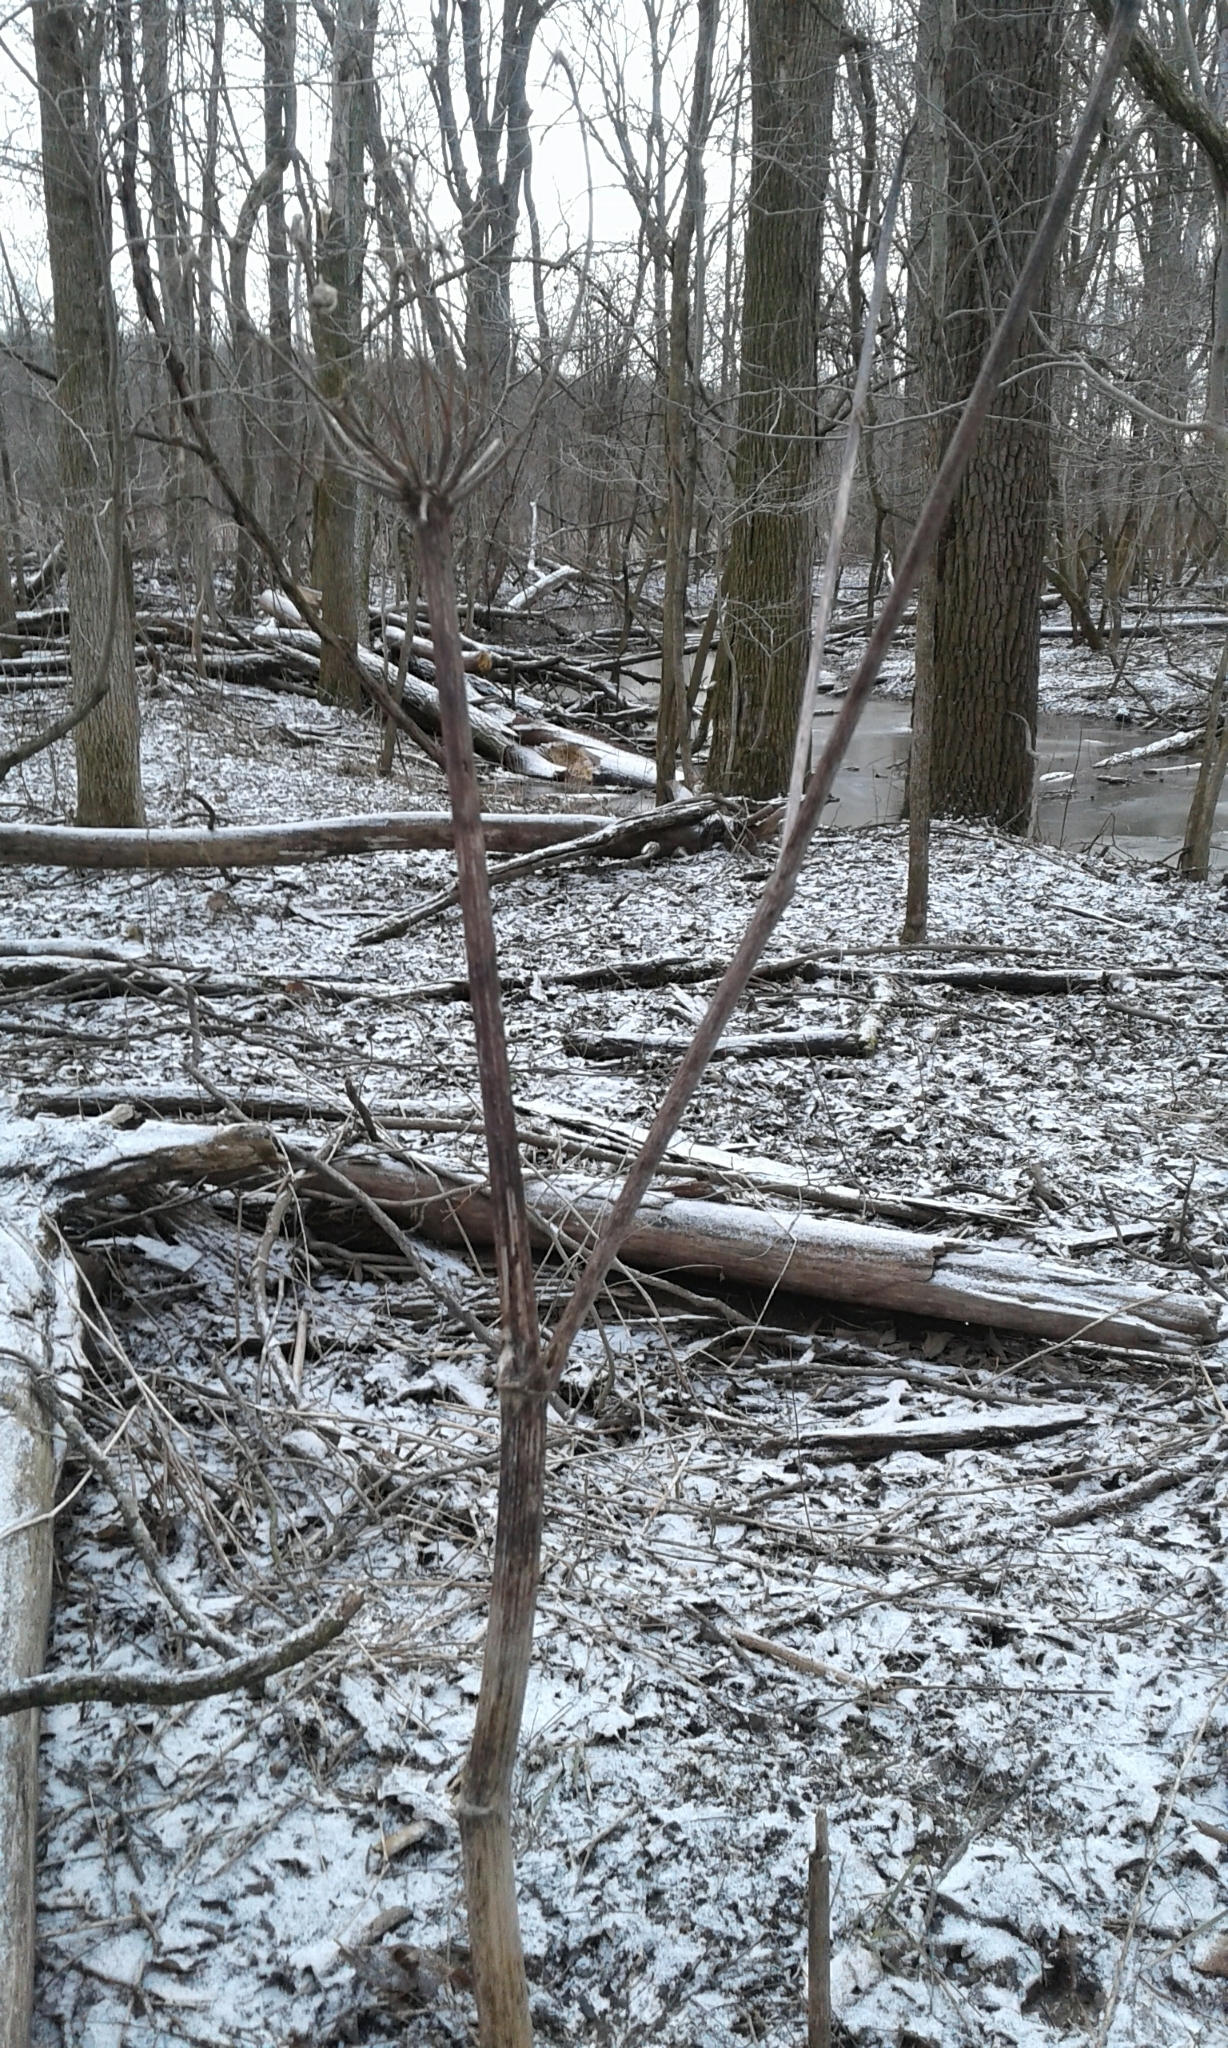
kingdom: Plantae
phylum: Tracheophyta
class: Magnoliopsida
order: Apiales
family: Apiaceae
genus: Angelica
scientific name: Angelica atropurpurea
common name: Great angelica
